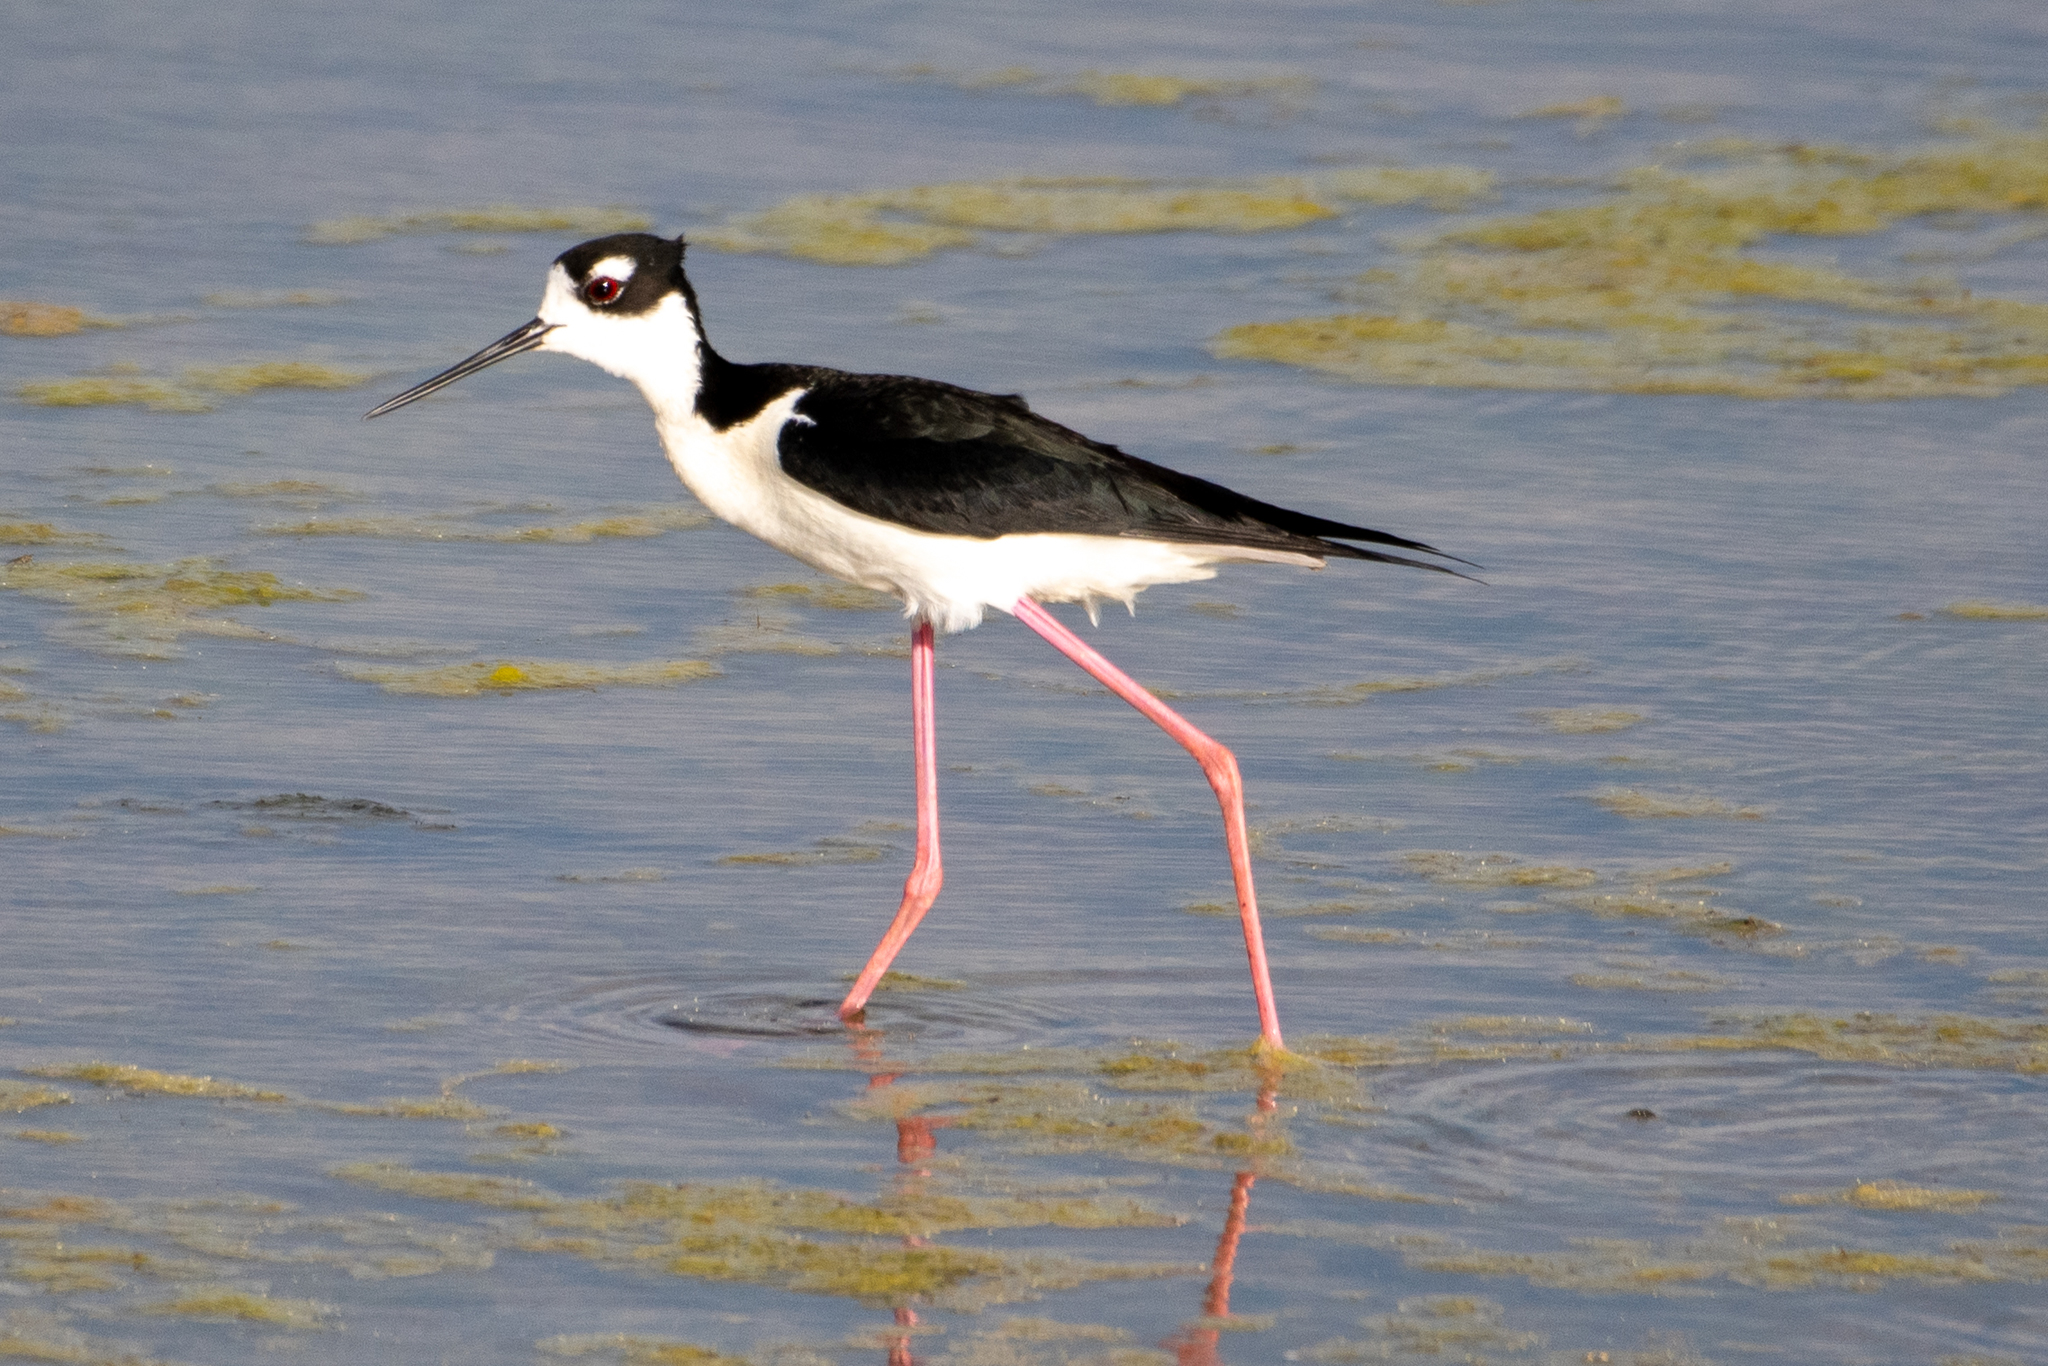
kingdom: Animalia
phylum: Chordata
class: Aves
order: Charadriiformes
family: Recurvirostridae
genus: Himantopus
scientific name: Himantopus mexicanus
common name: Black-necked stilt
